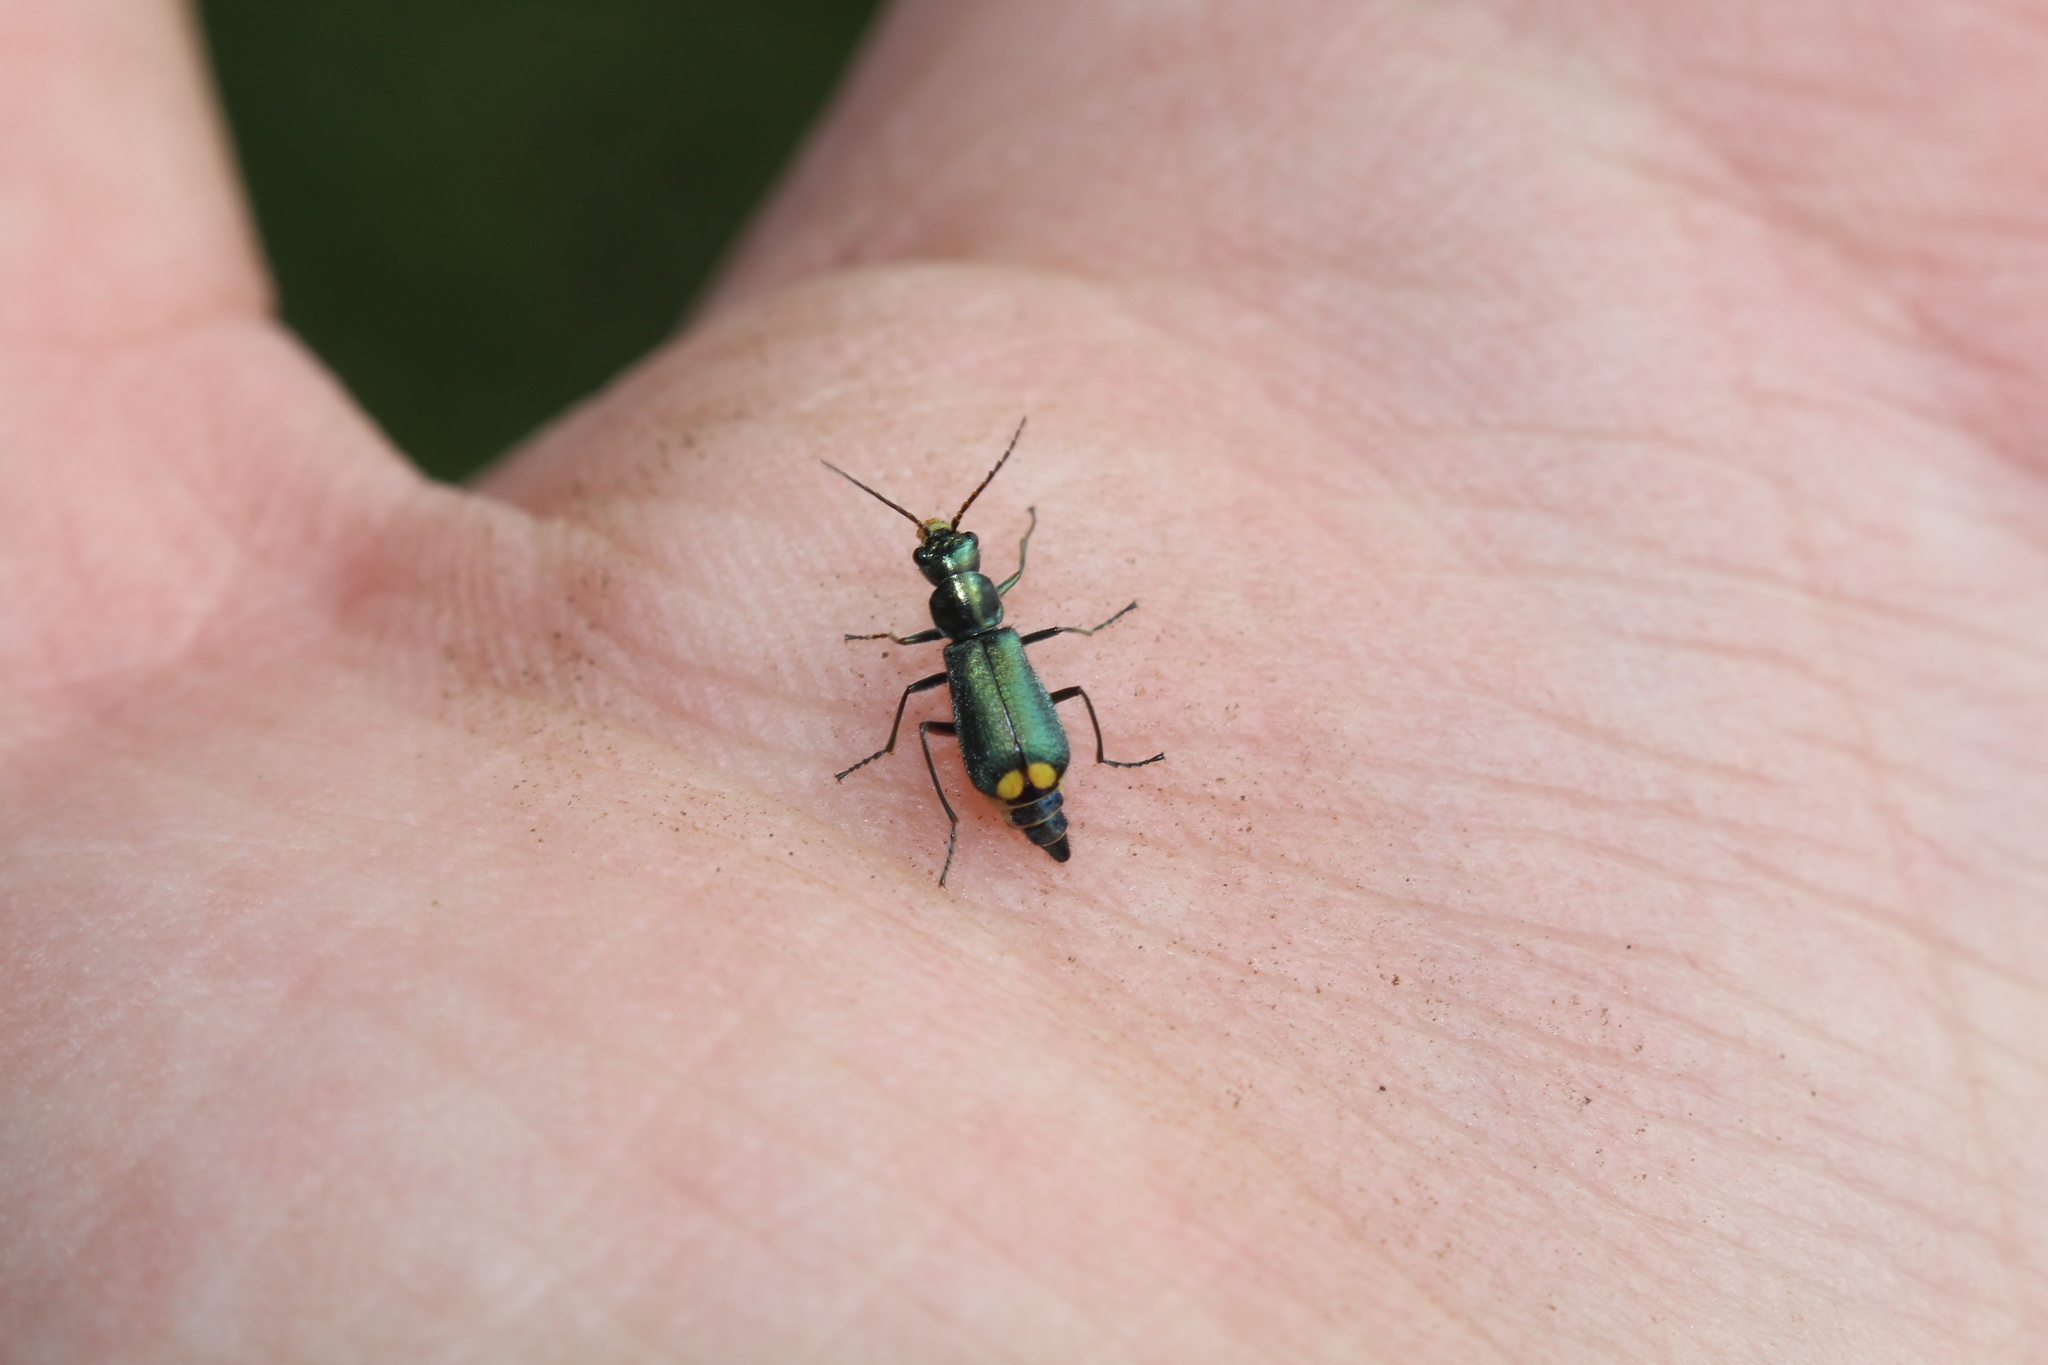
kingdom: Animalia
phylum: Arthropoda
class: Insecta
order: Coleoptera
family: Malachiidae
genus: Clanoptilus
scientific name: Clanoptilus marginellus
